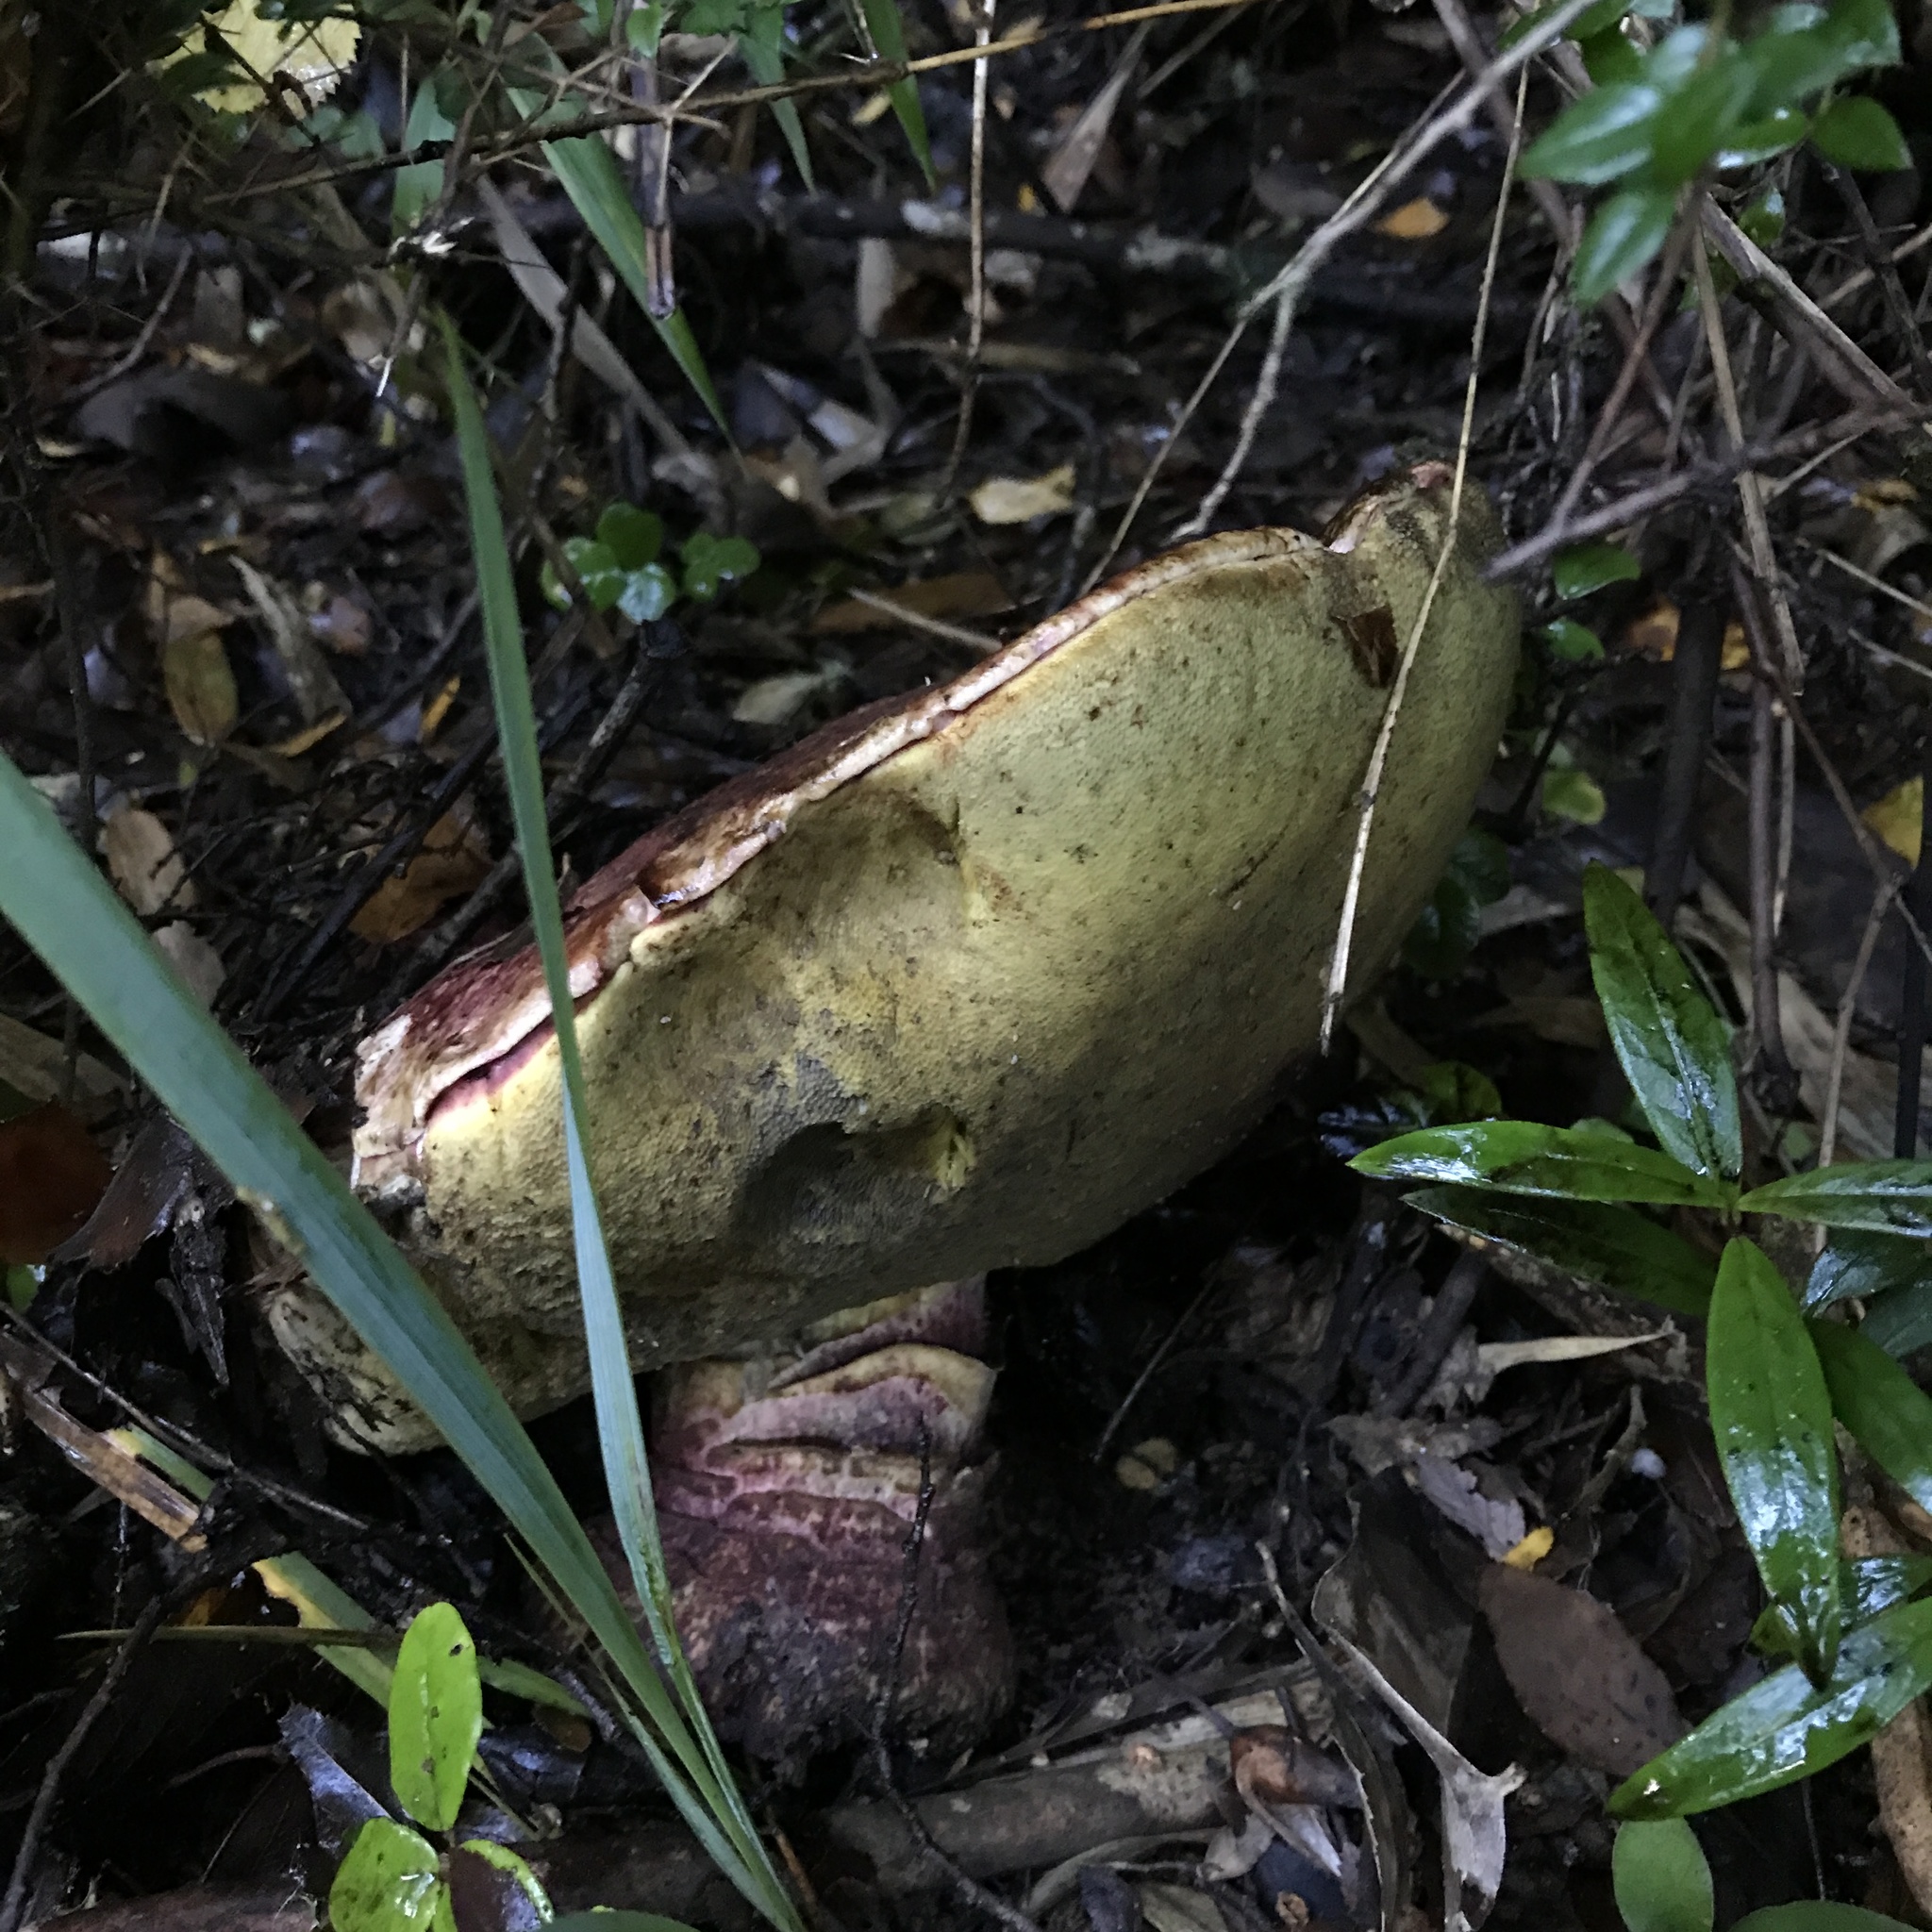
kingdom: Fungi
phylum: Basidiomycota
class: Agaricomycetes
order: Boletales
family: Boletaceae
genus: Butyriboletus
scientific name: Butyriboletus loyo
